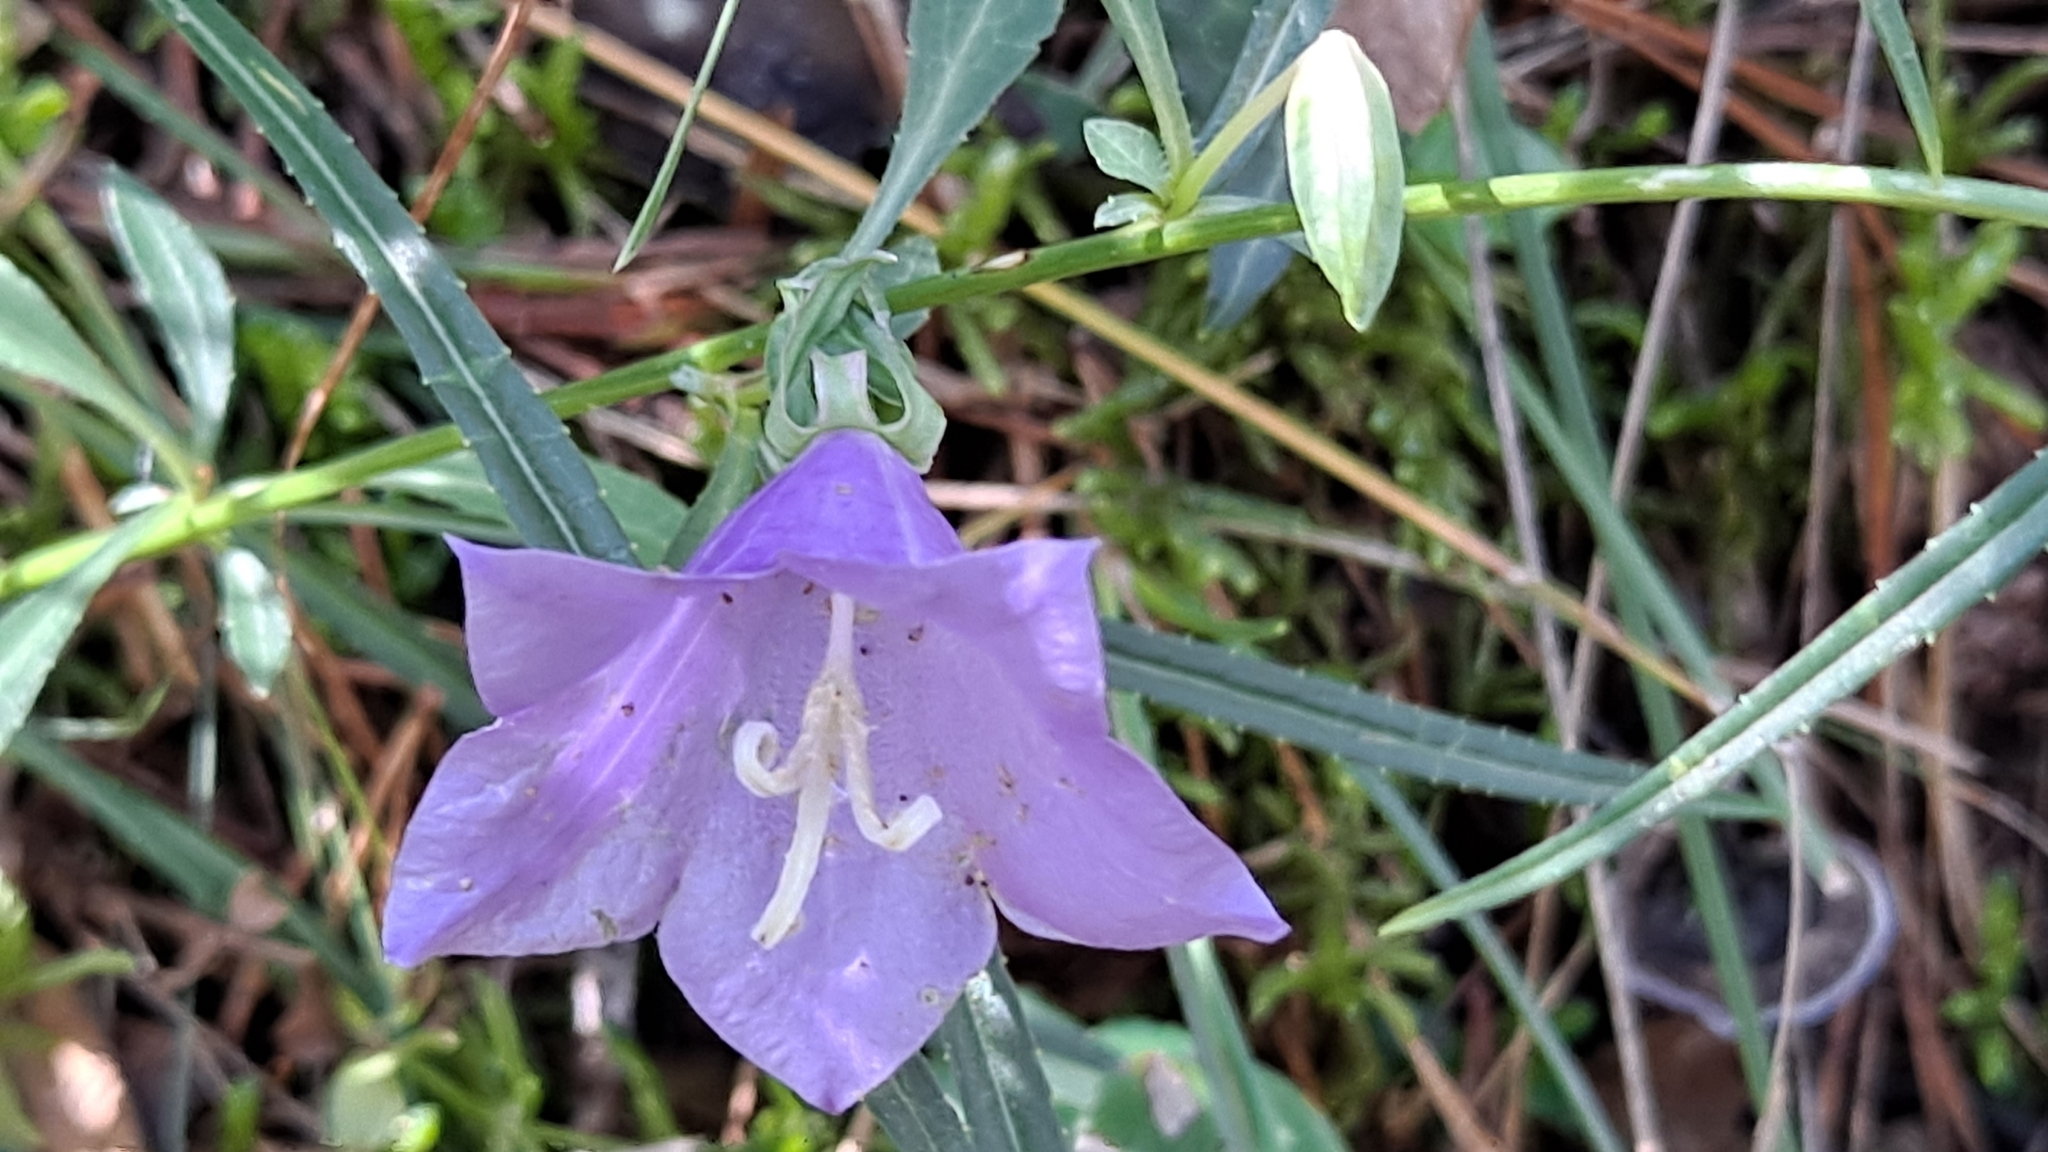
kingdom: Plantae
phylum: Tracheophyta
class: Magnoliopsida
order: Asterales
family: Campanulaceae
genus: Campanula
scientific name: Campanula persicifolia
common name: Peach-leaved bellflower
